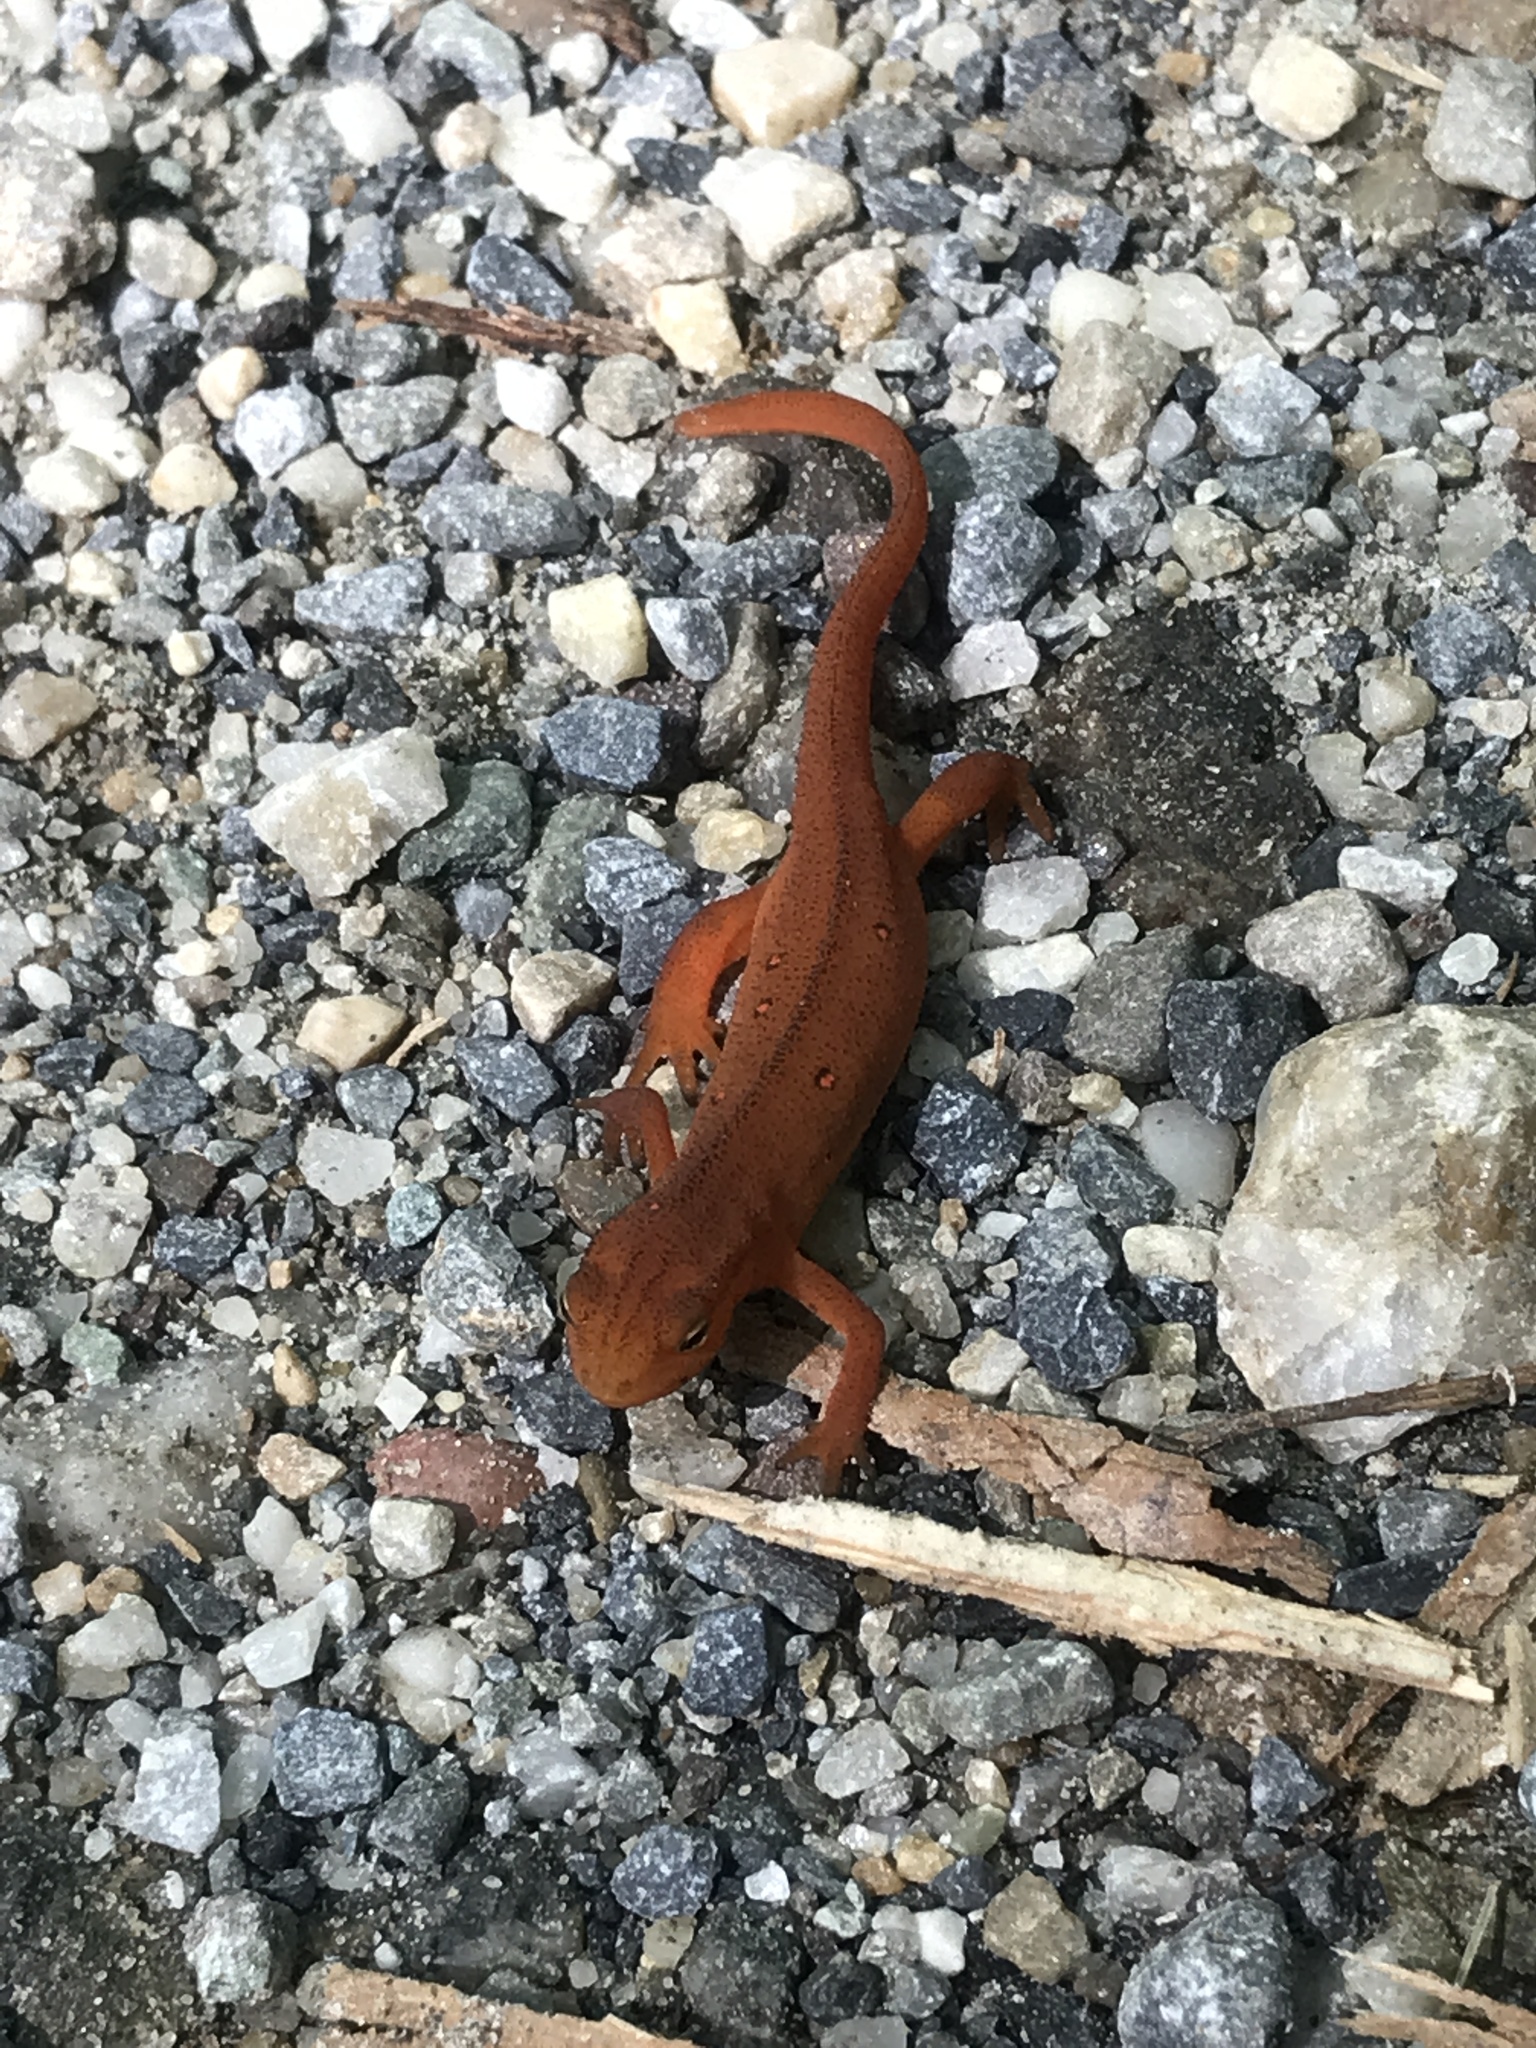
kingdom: Animalia
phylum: Chordata
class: Amphibia
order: Caudata
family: Salamandridae
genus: Notophthalmus
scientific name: Notophthalmus viridescens
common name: Eastern newt
